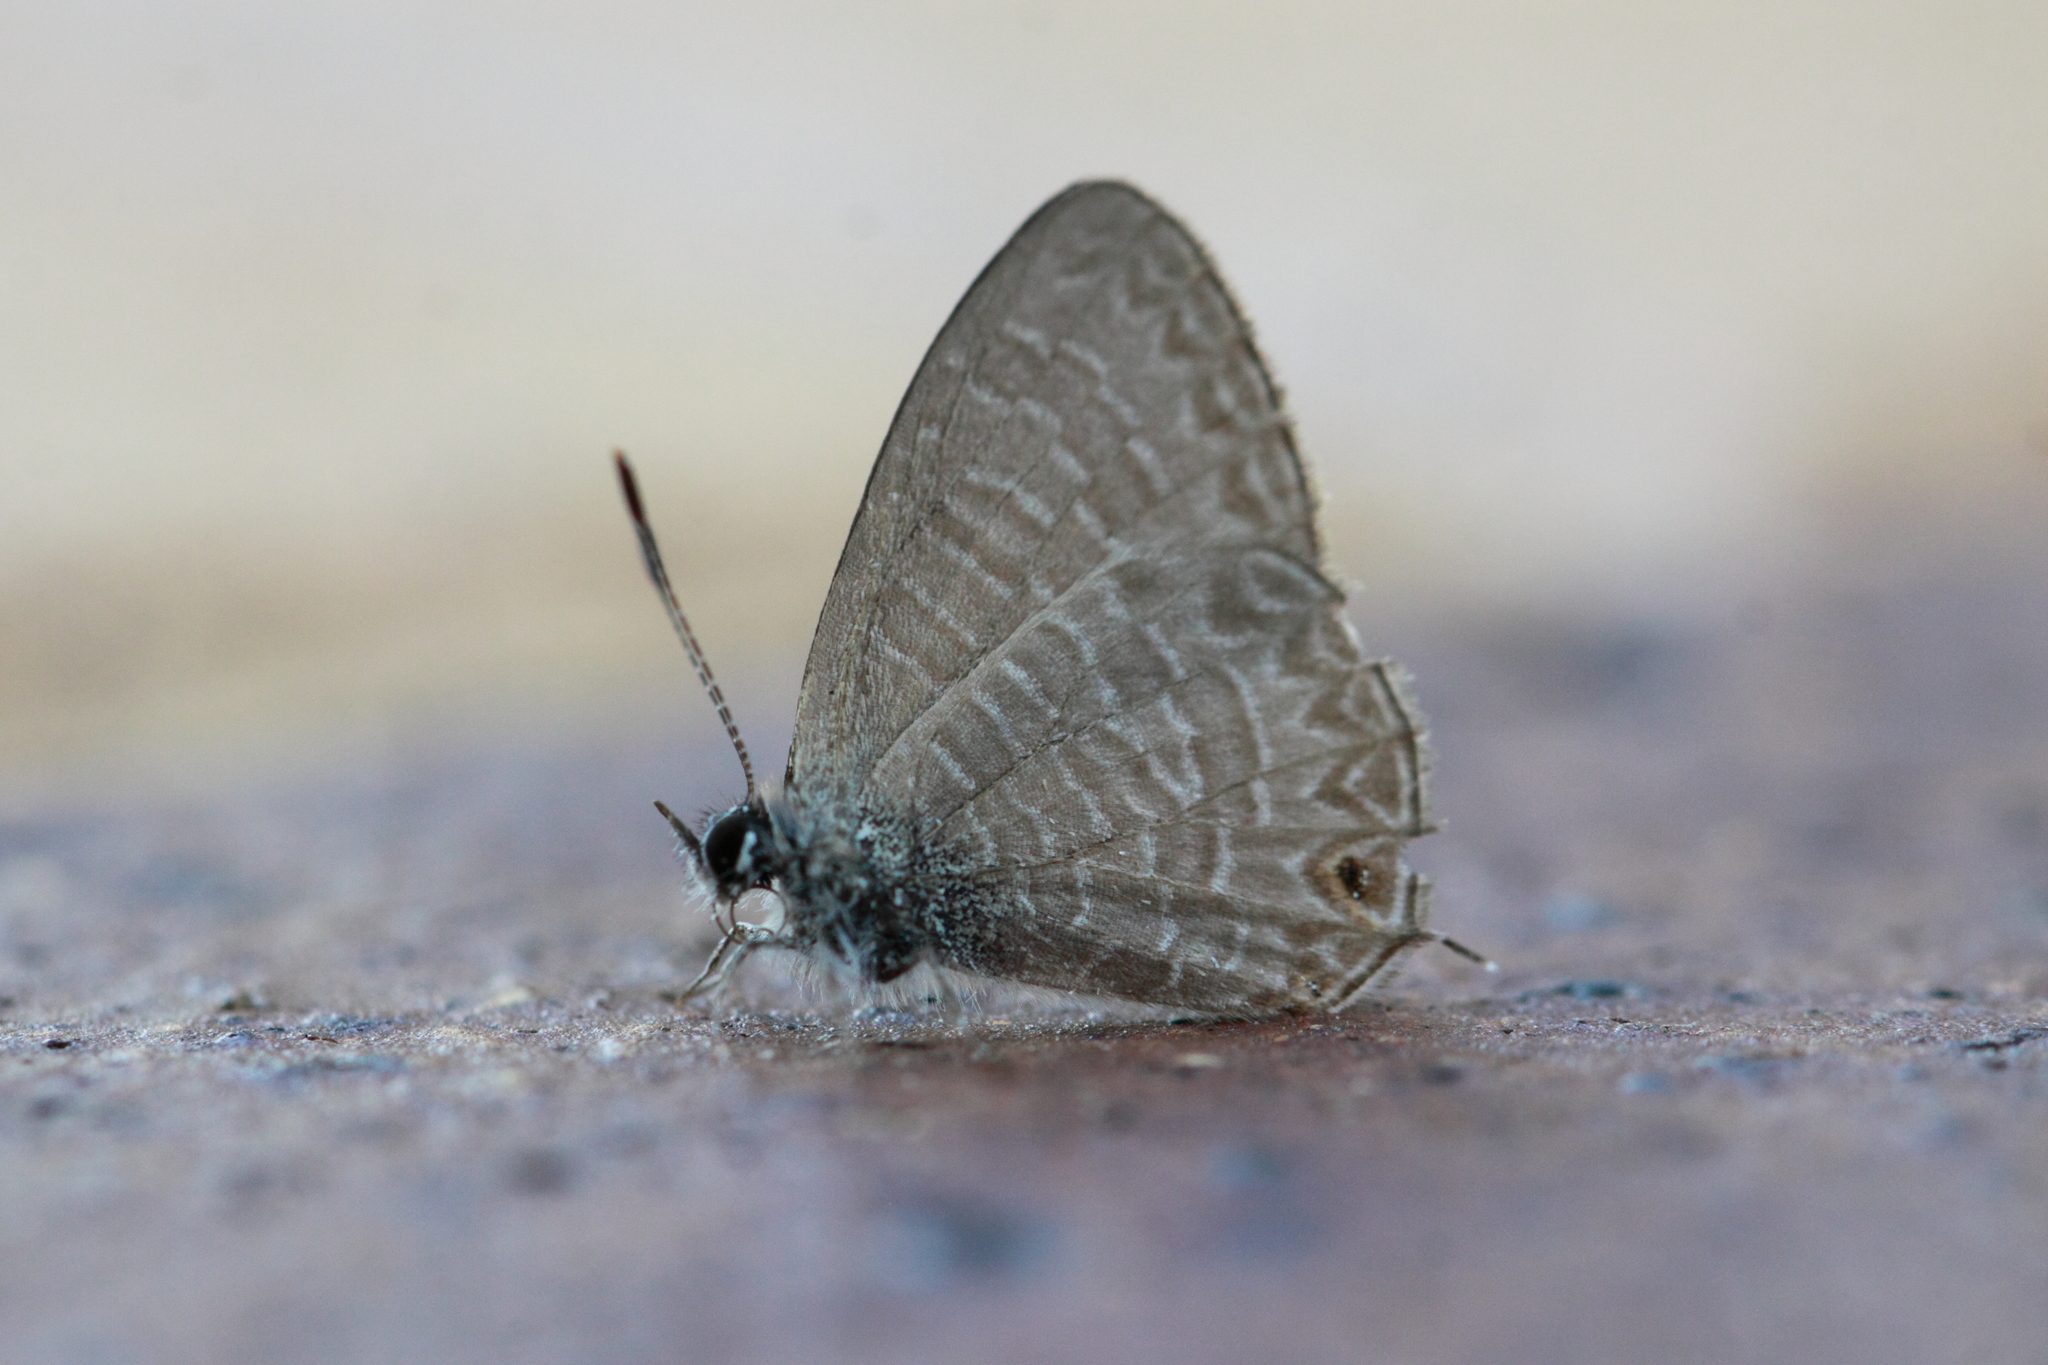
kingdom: Animalia
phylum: Arthropoda
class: Insecta
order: Lepidoptera
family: Lycaenidae
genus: Nacaduba
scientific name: Nacaduba berenice
